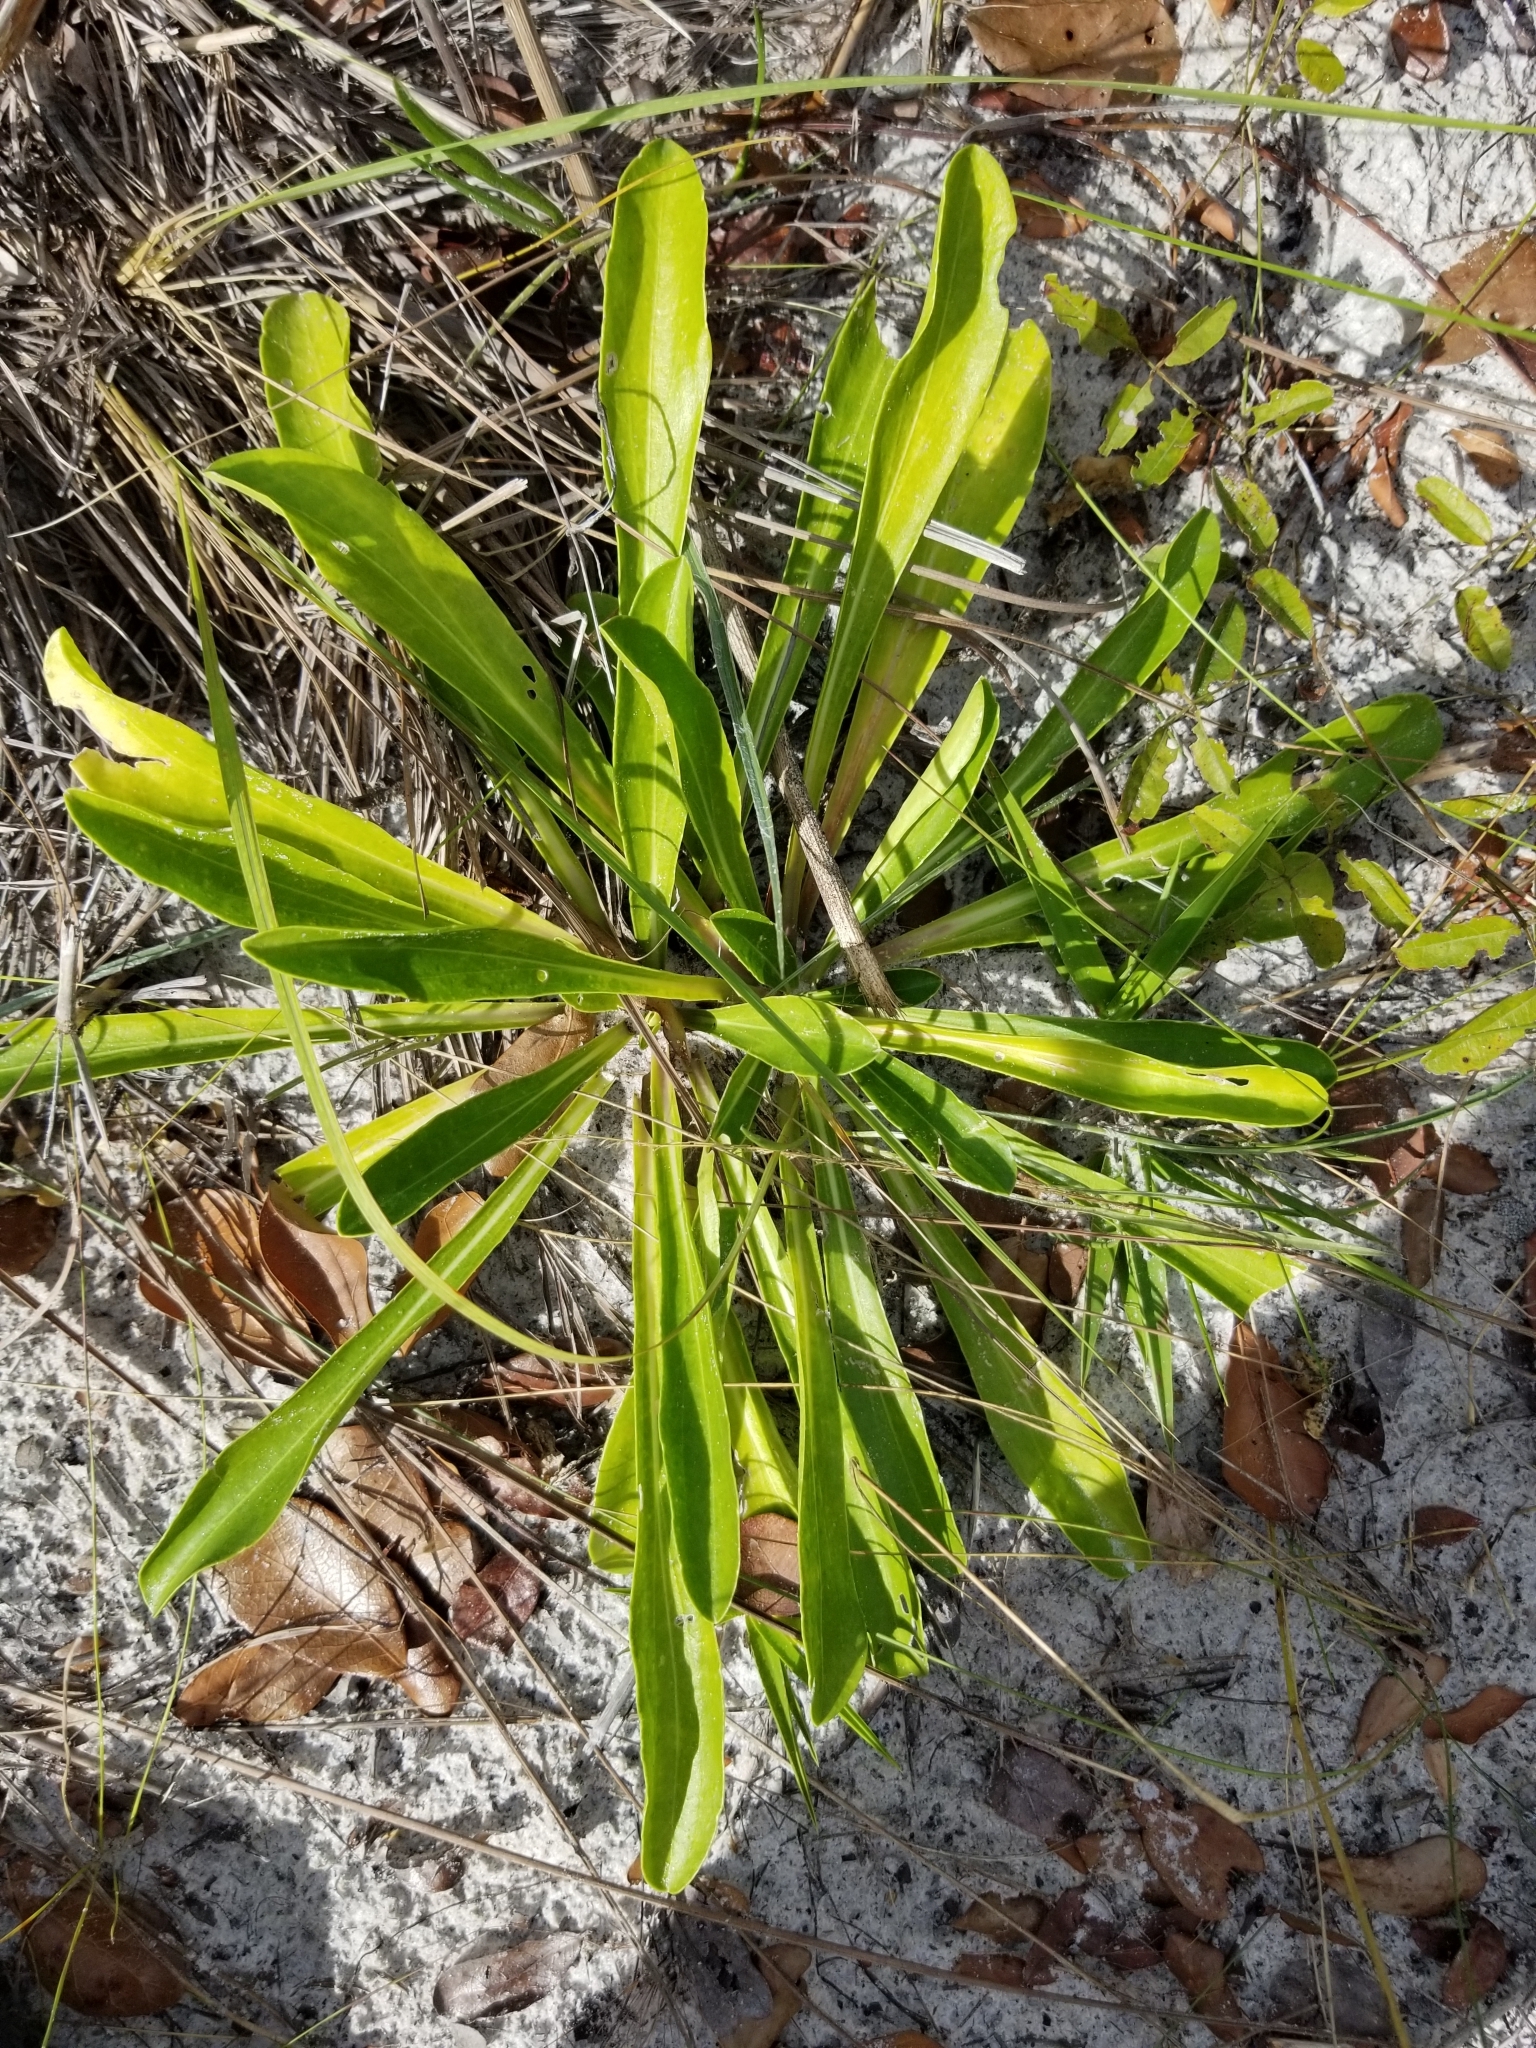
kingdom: Plantae
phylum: Tracheophyta
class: Magnoliopsida
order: Asterales
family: Asteraceae
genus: Carphephorus
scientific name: Carphephorus corymbosus
